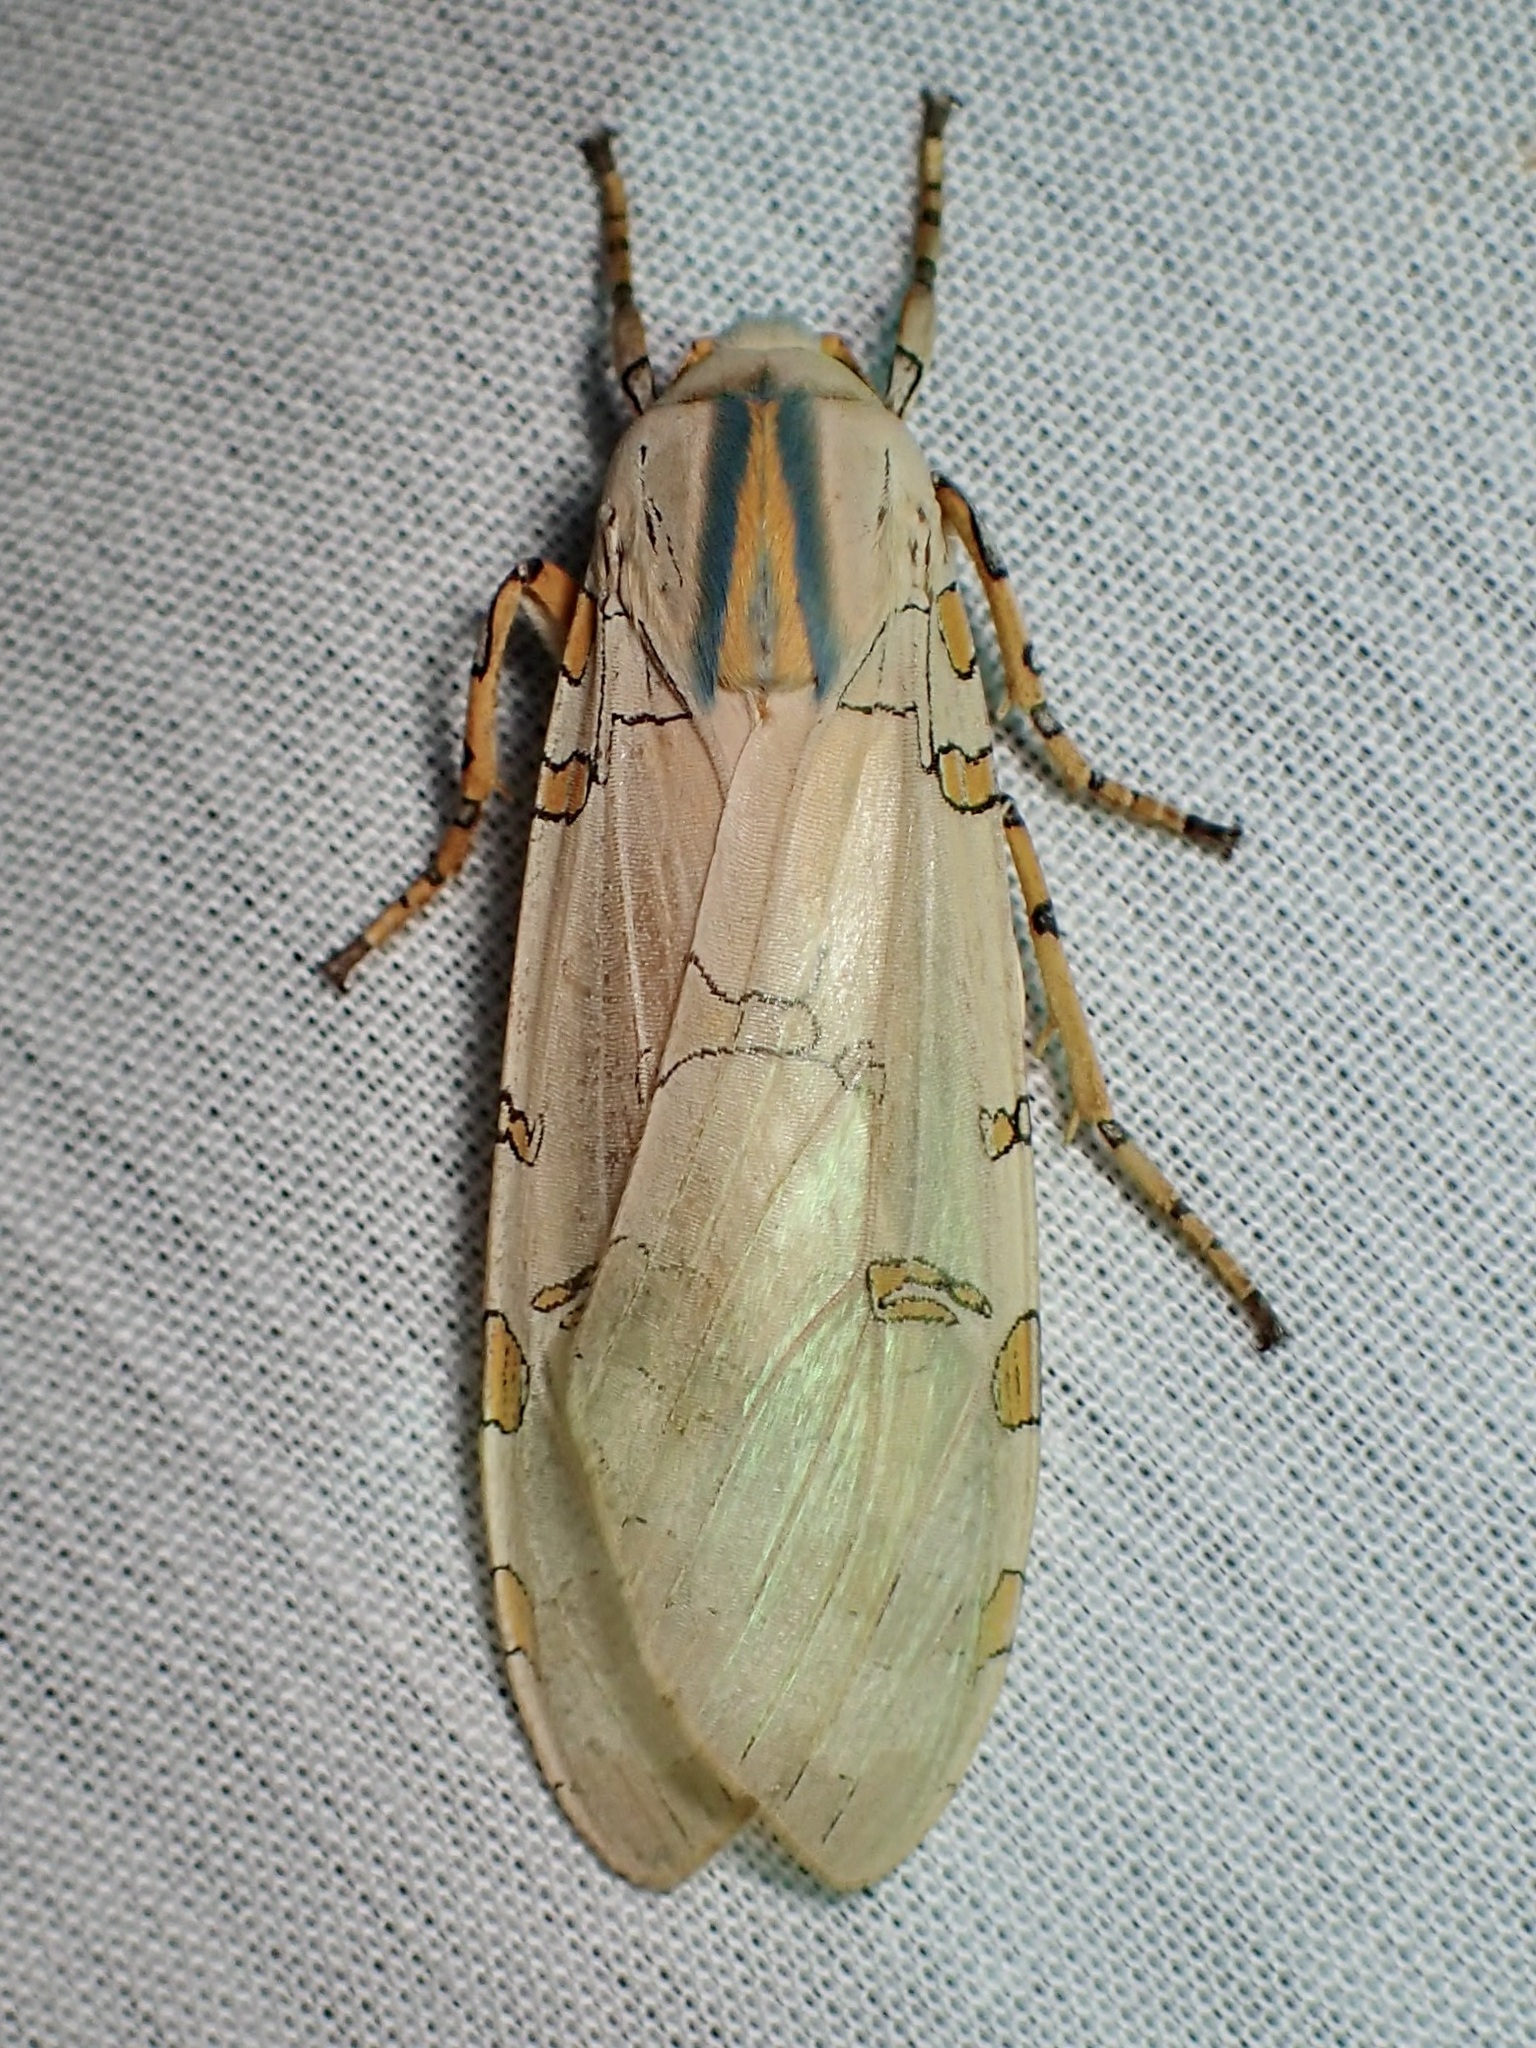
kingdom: Animalia
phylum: Arthropoda
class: Insecta
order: Lepidoptera
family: Erebidae
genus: Halysidota
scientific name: Halysidota davisii
